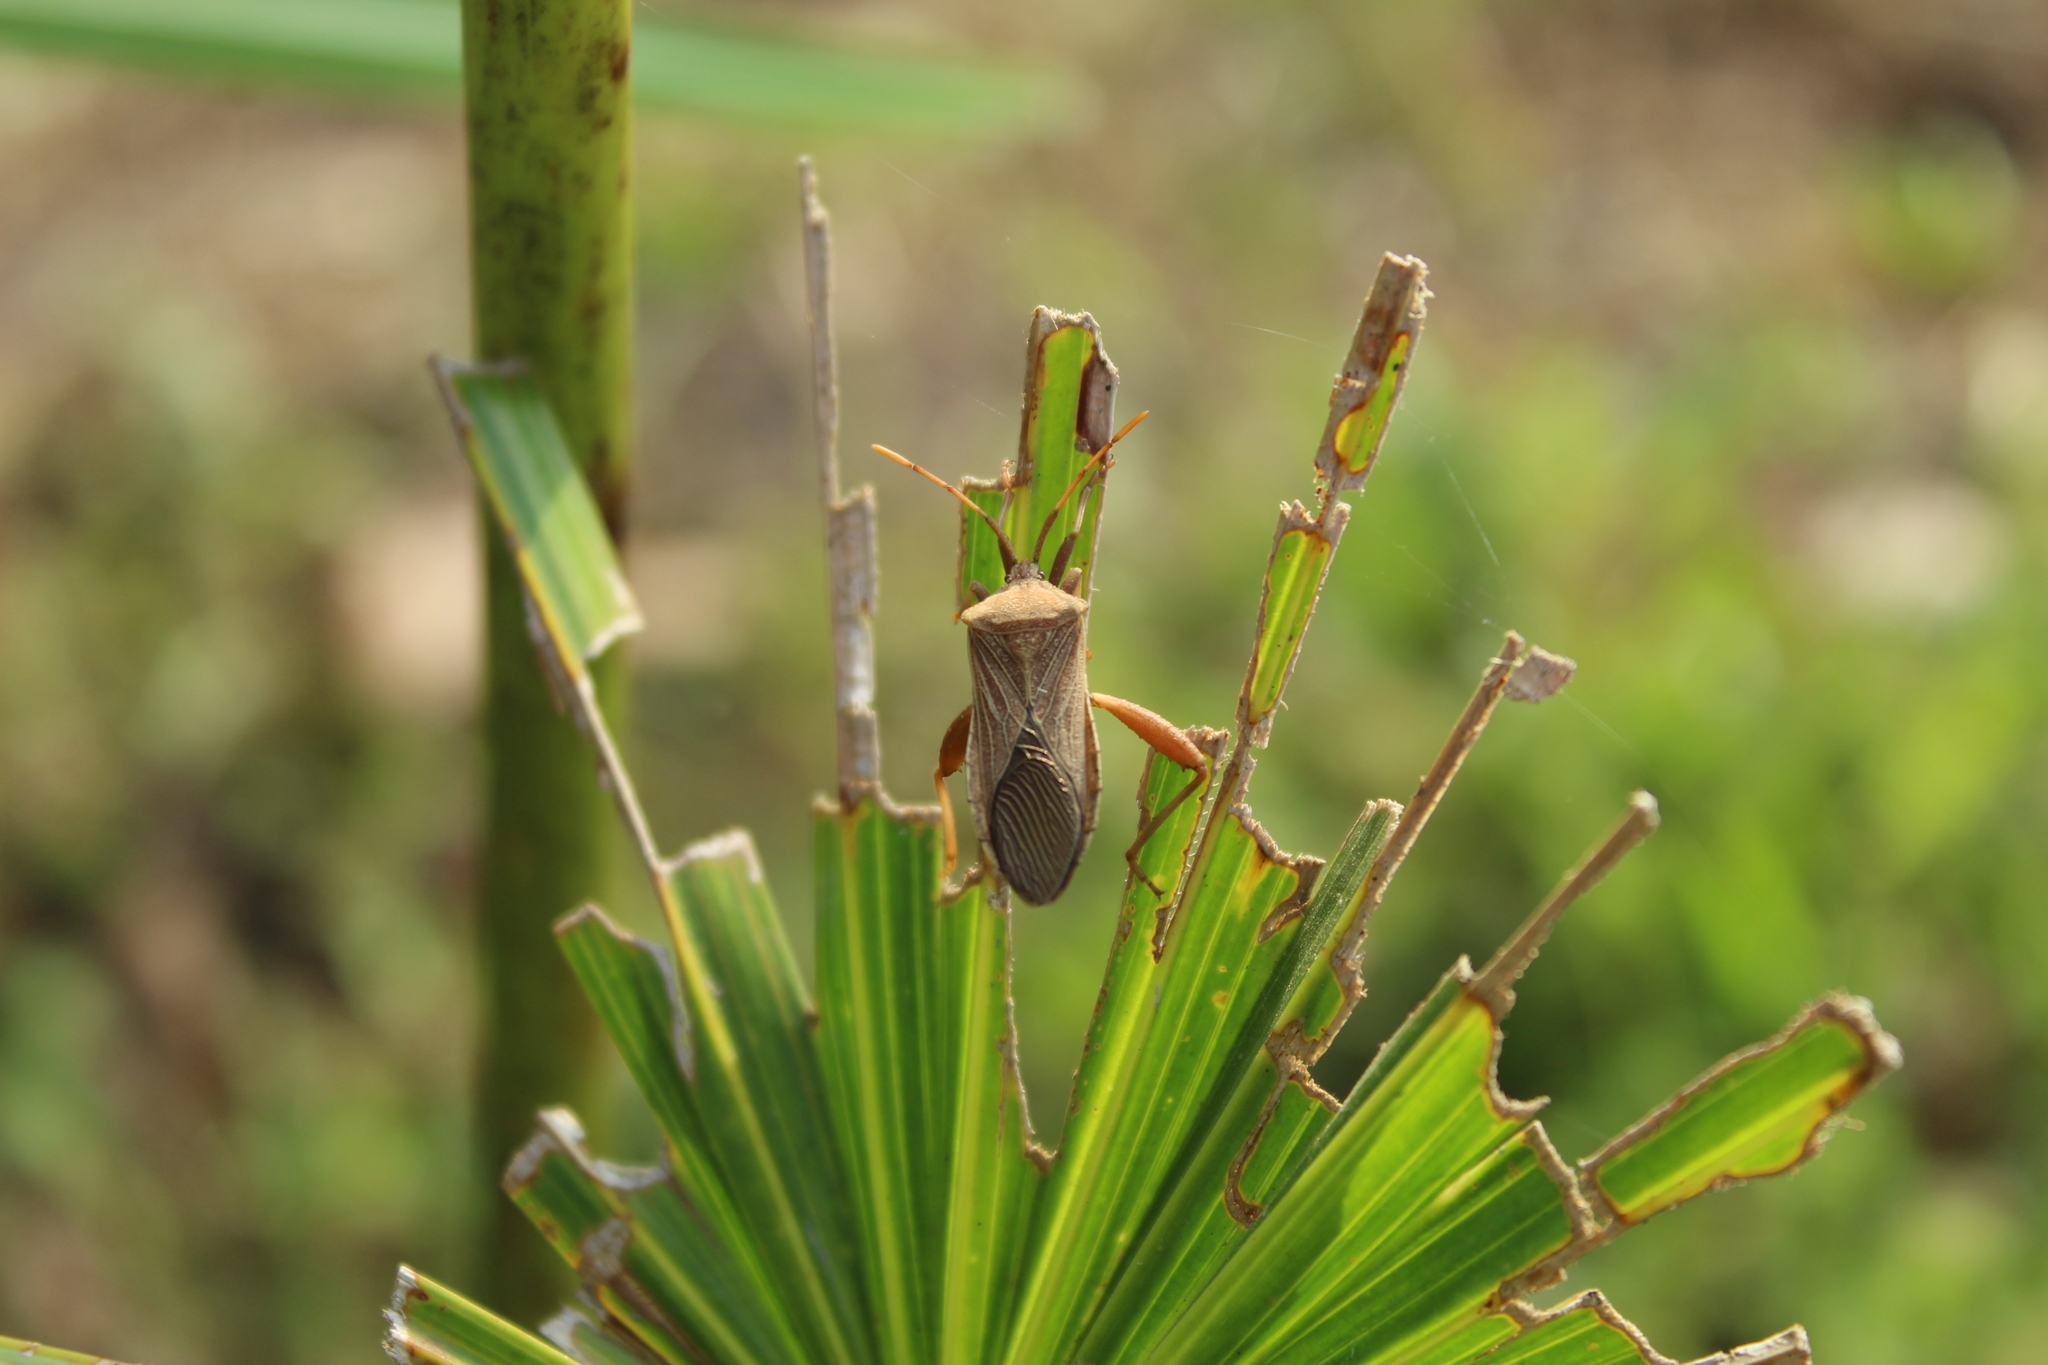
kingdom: Animalia
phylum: Arthropoda
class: Insecta
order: Hemiptera
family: Coreidae
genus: Piezogaster
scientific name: Piezogaster odiosus
